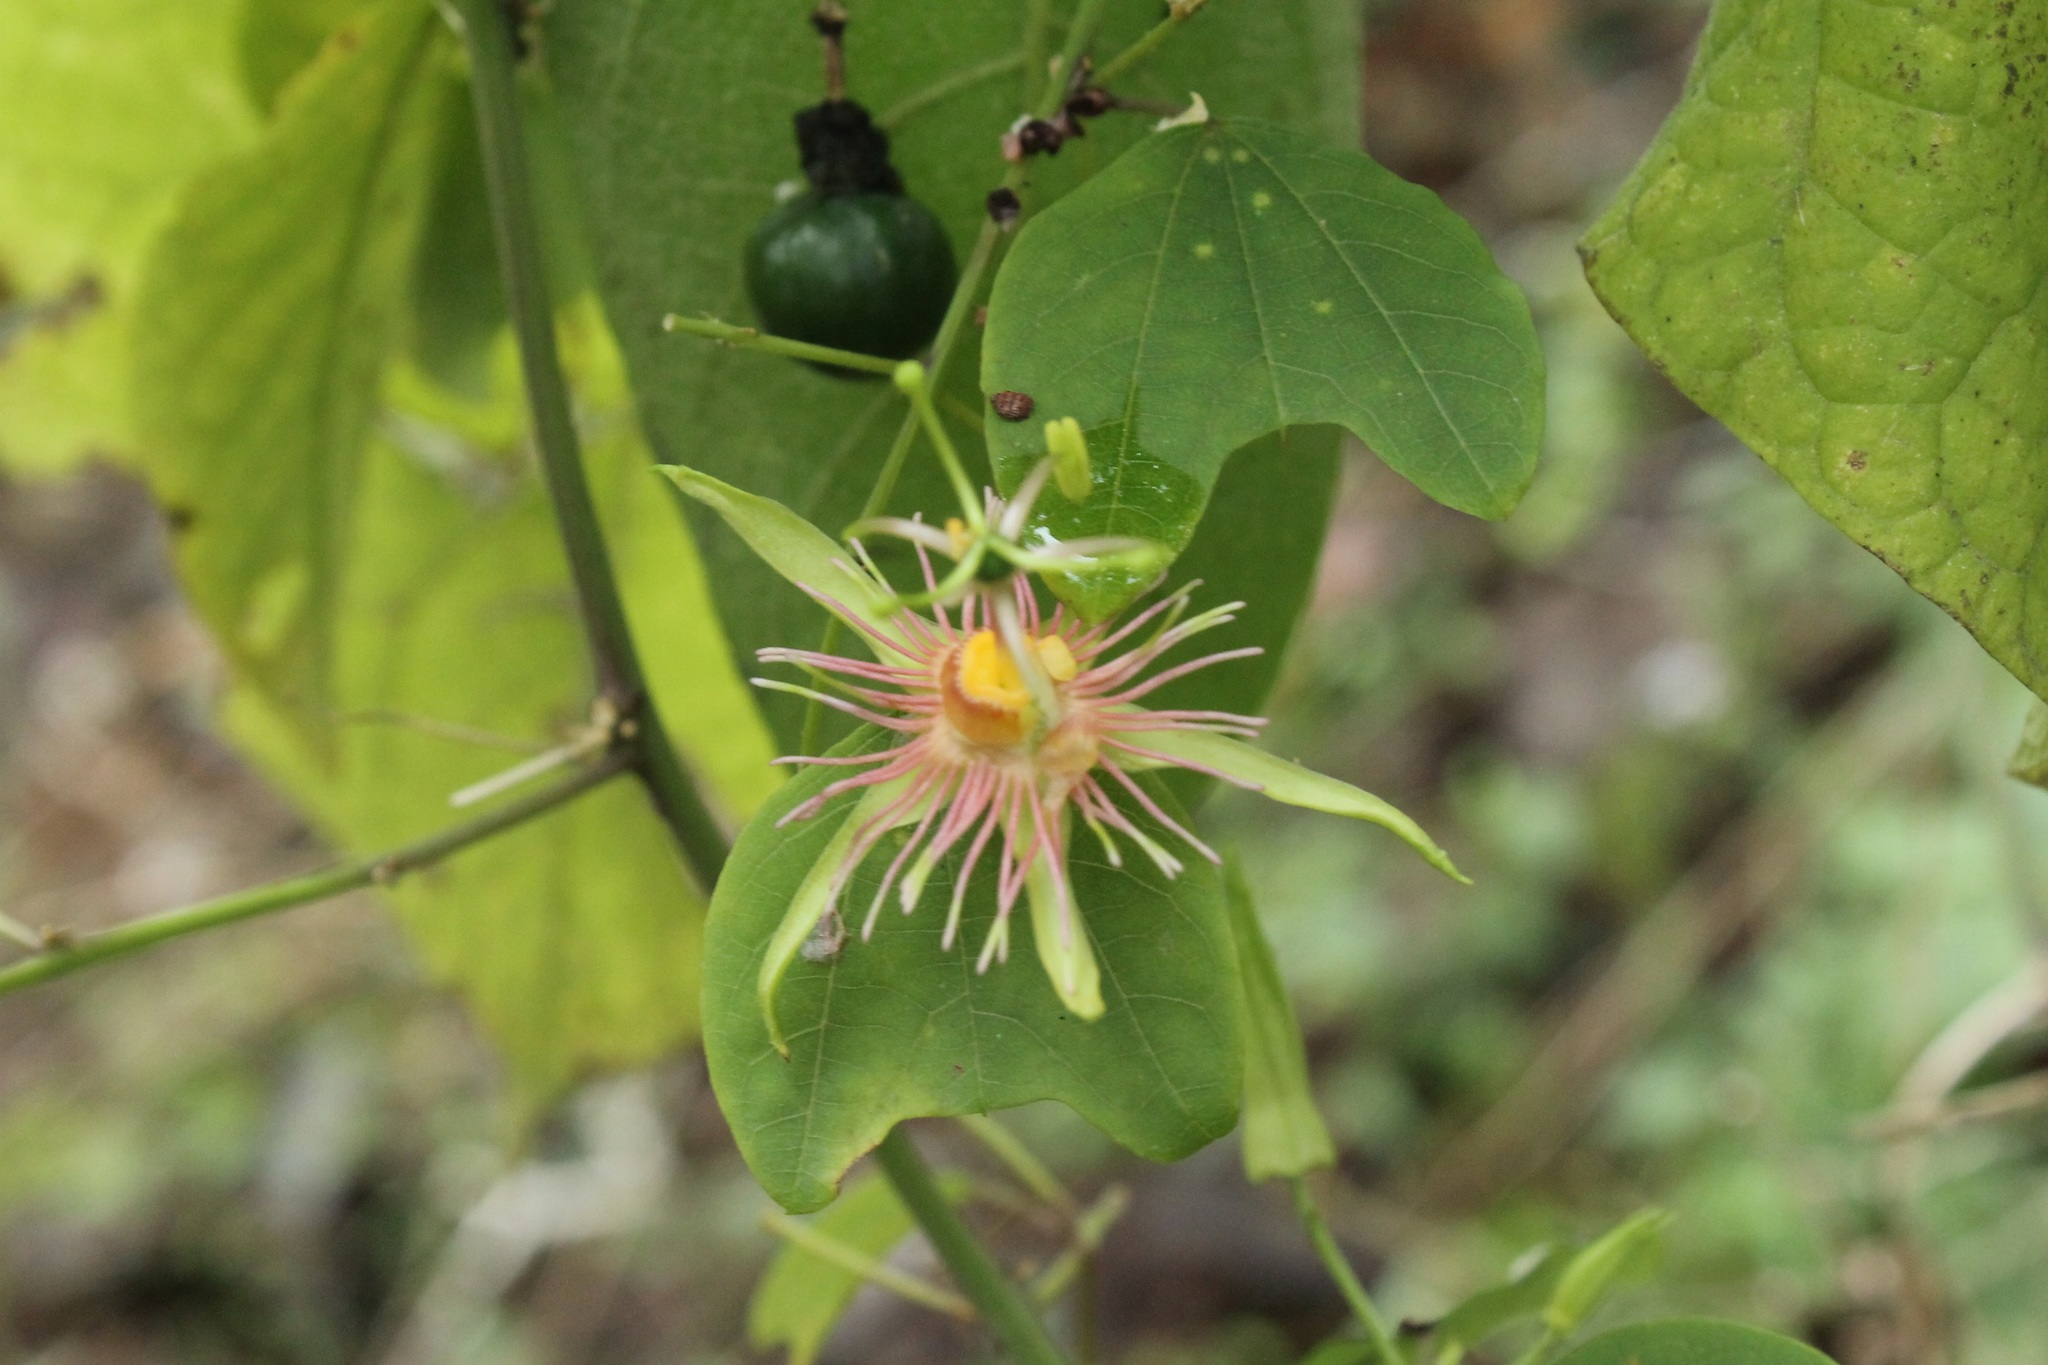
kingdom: Plantae
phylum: Tracheophyta
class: Magnoliopsida
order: Malpighiales
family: Passifloraceae
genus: Passiflora
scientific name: Passiflora jorullensis
